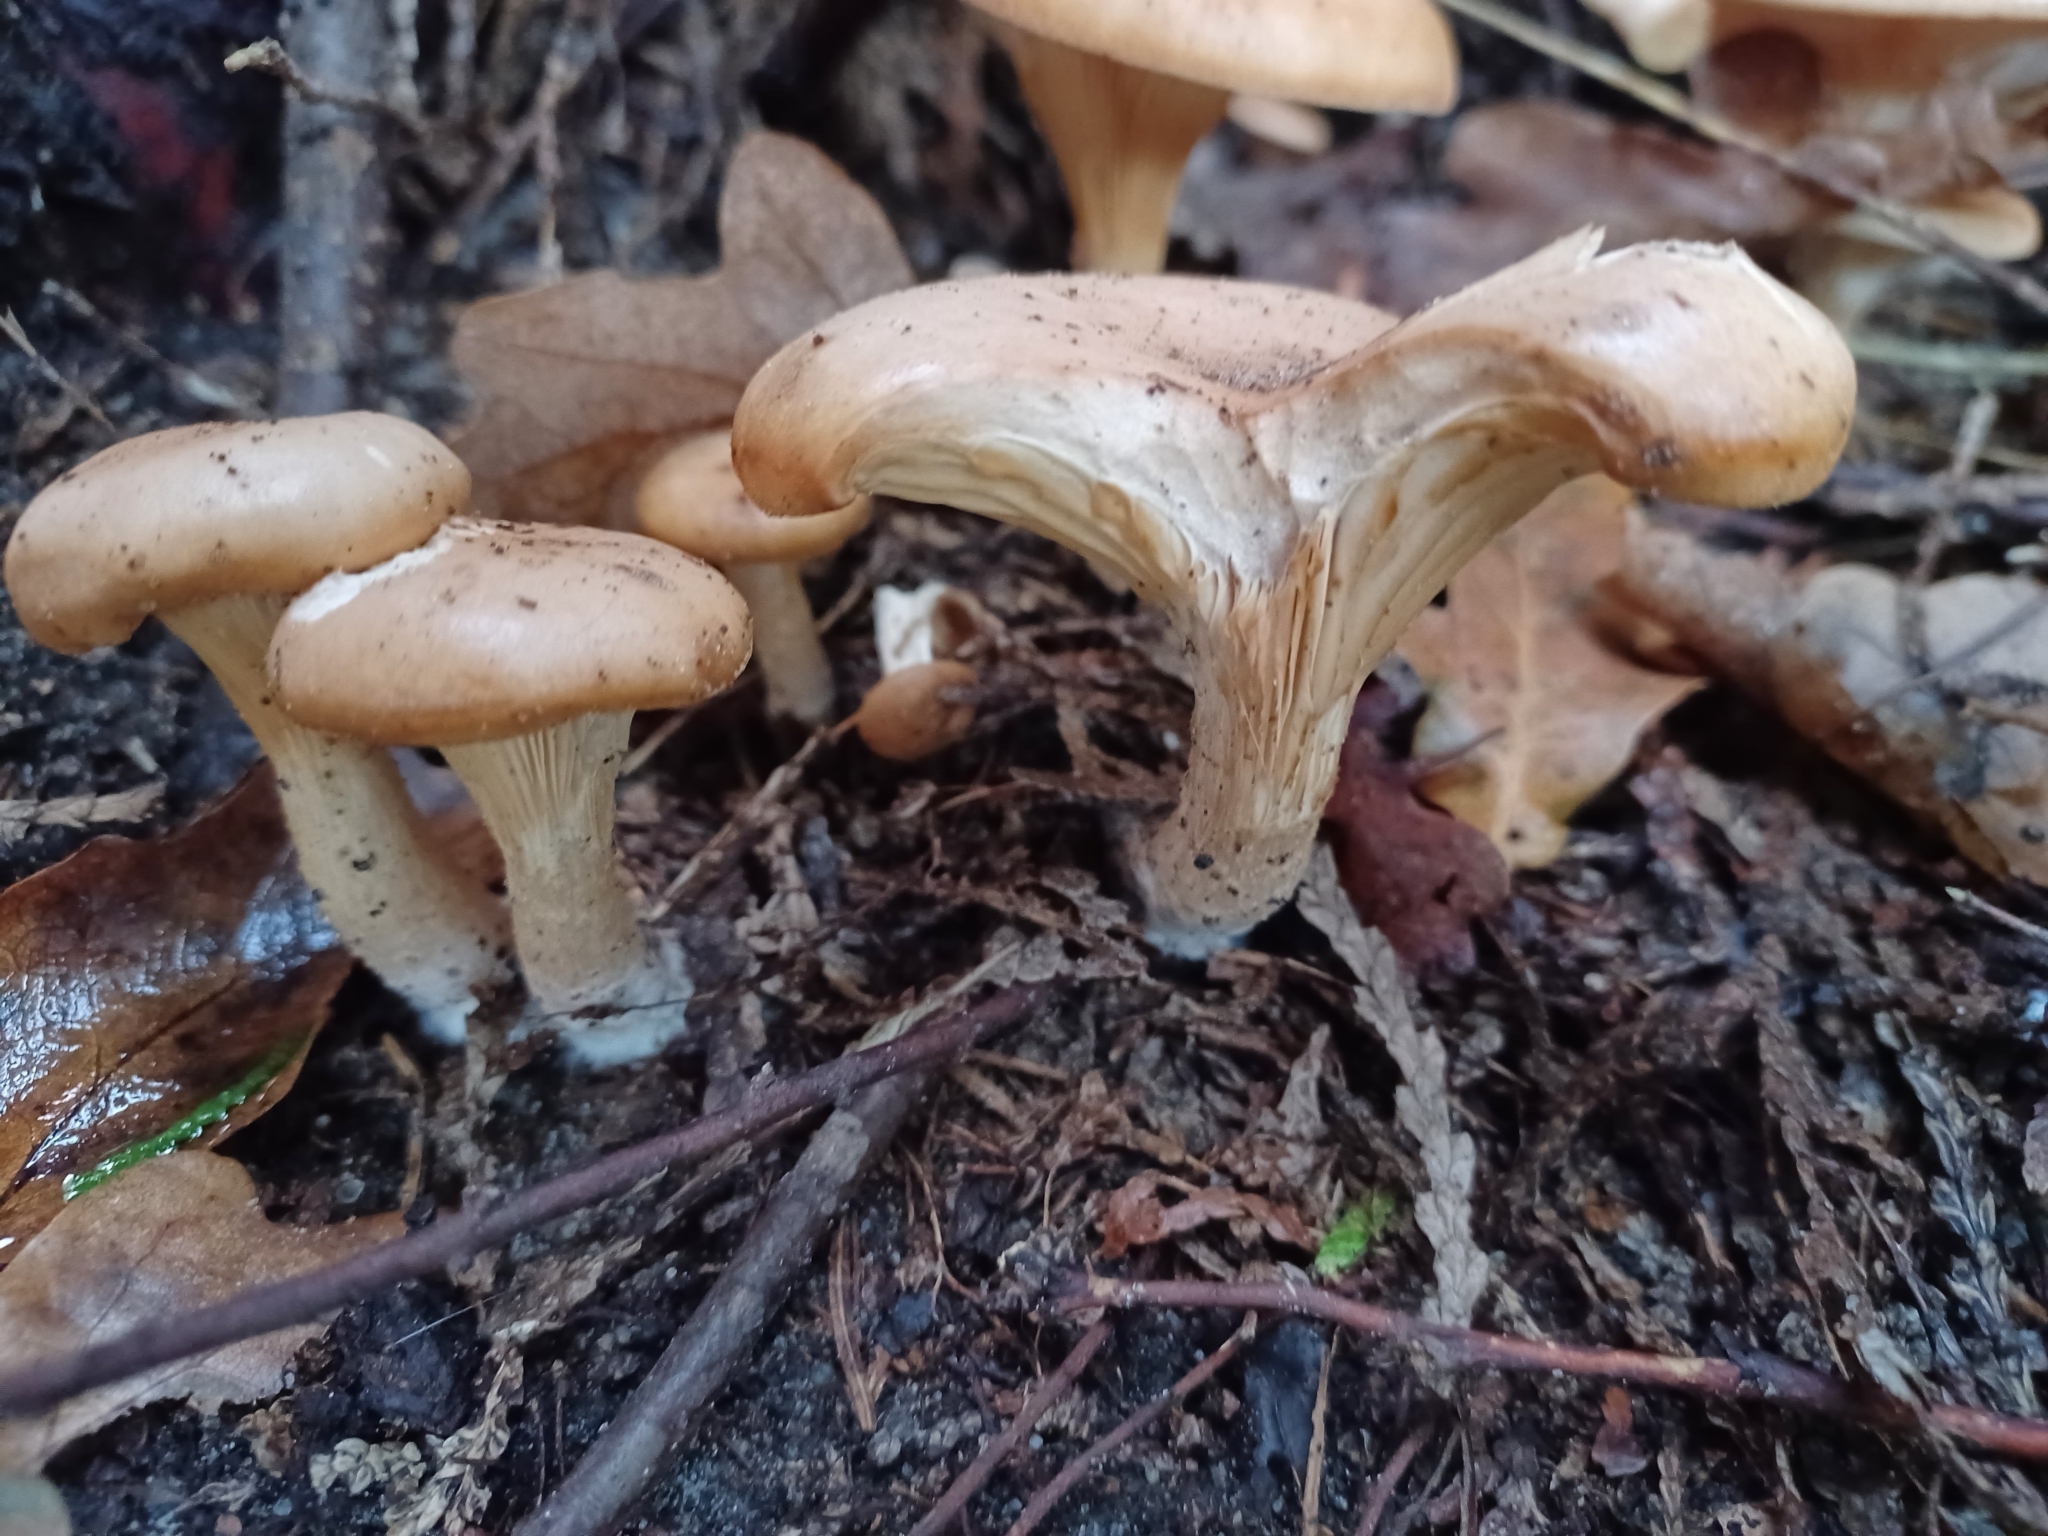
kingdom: Fungi
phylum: Basidiomycota
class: Agaricomycetes
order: Agaricales
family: Tricholomataceae
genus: Paralepista
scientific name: Paralepista flaccida
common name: Tawny funnel cap
